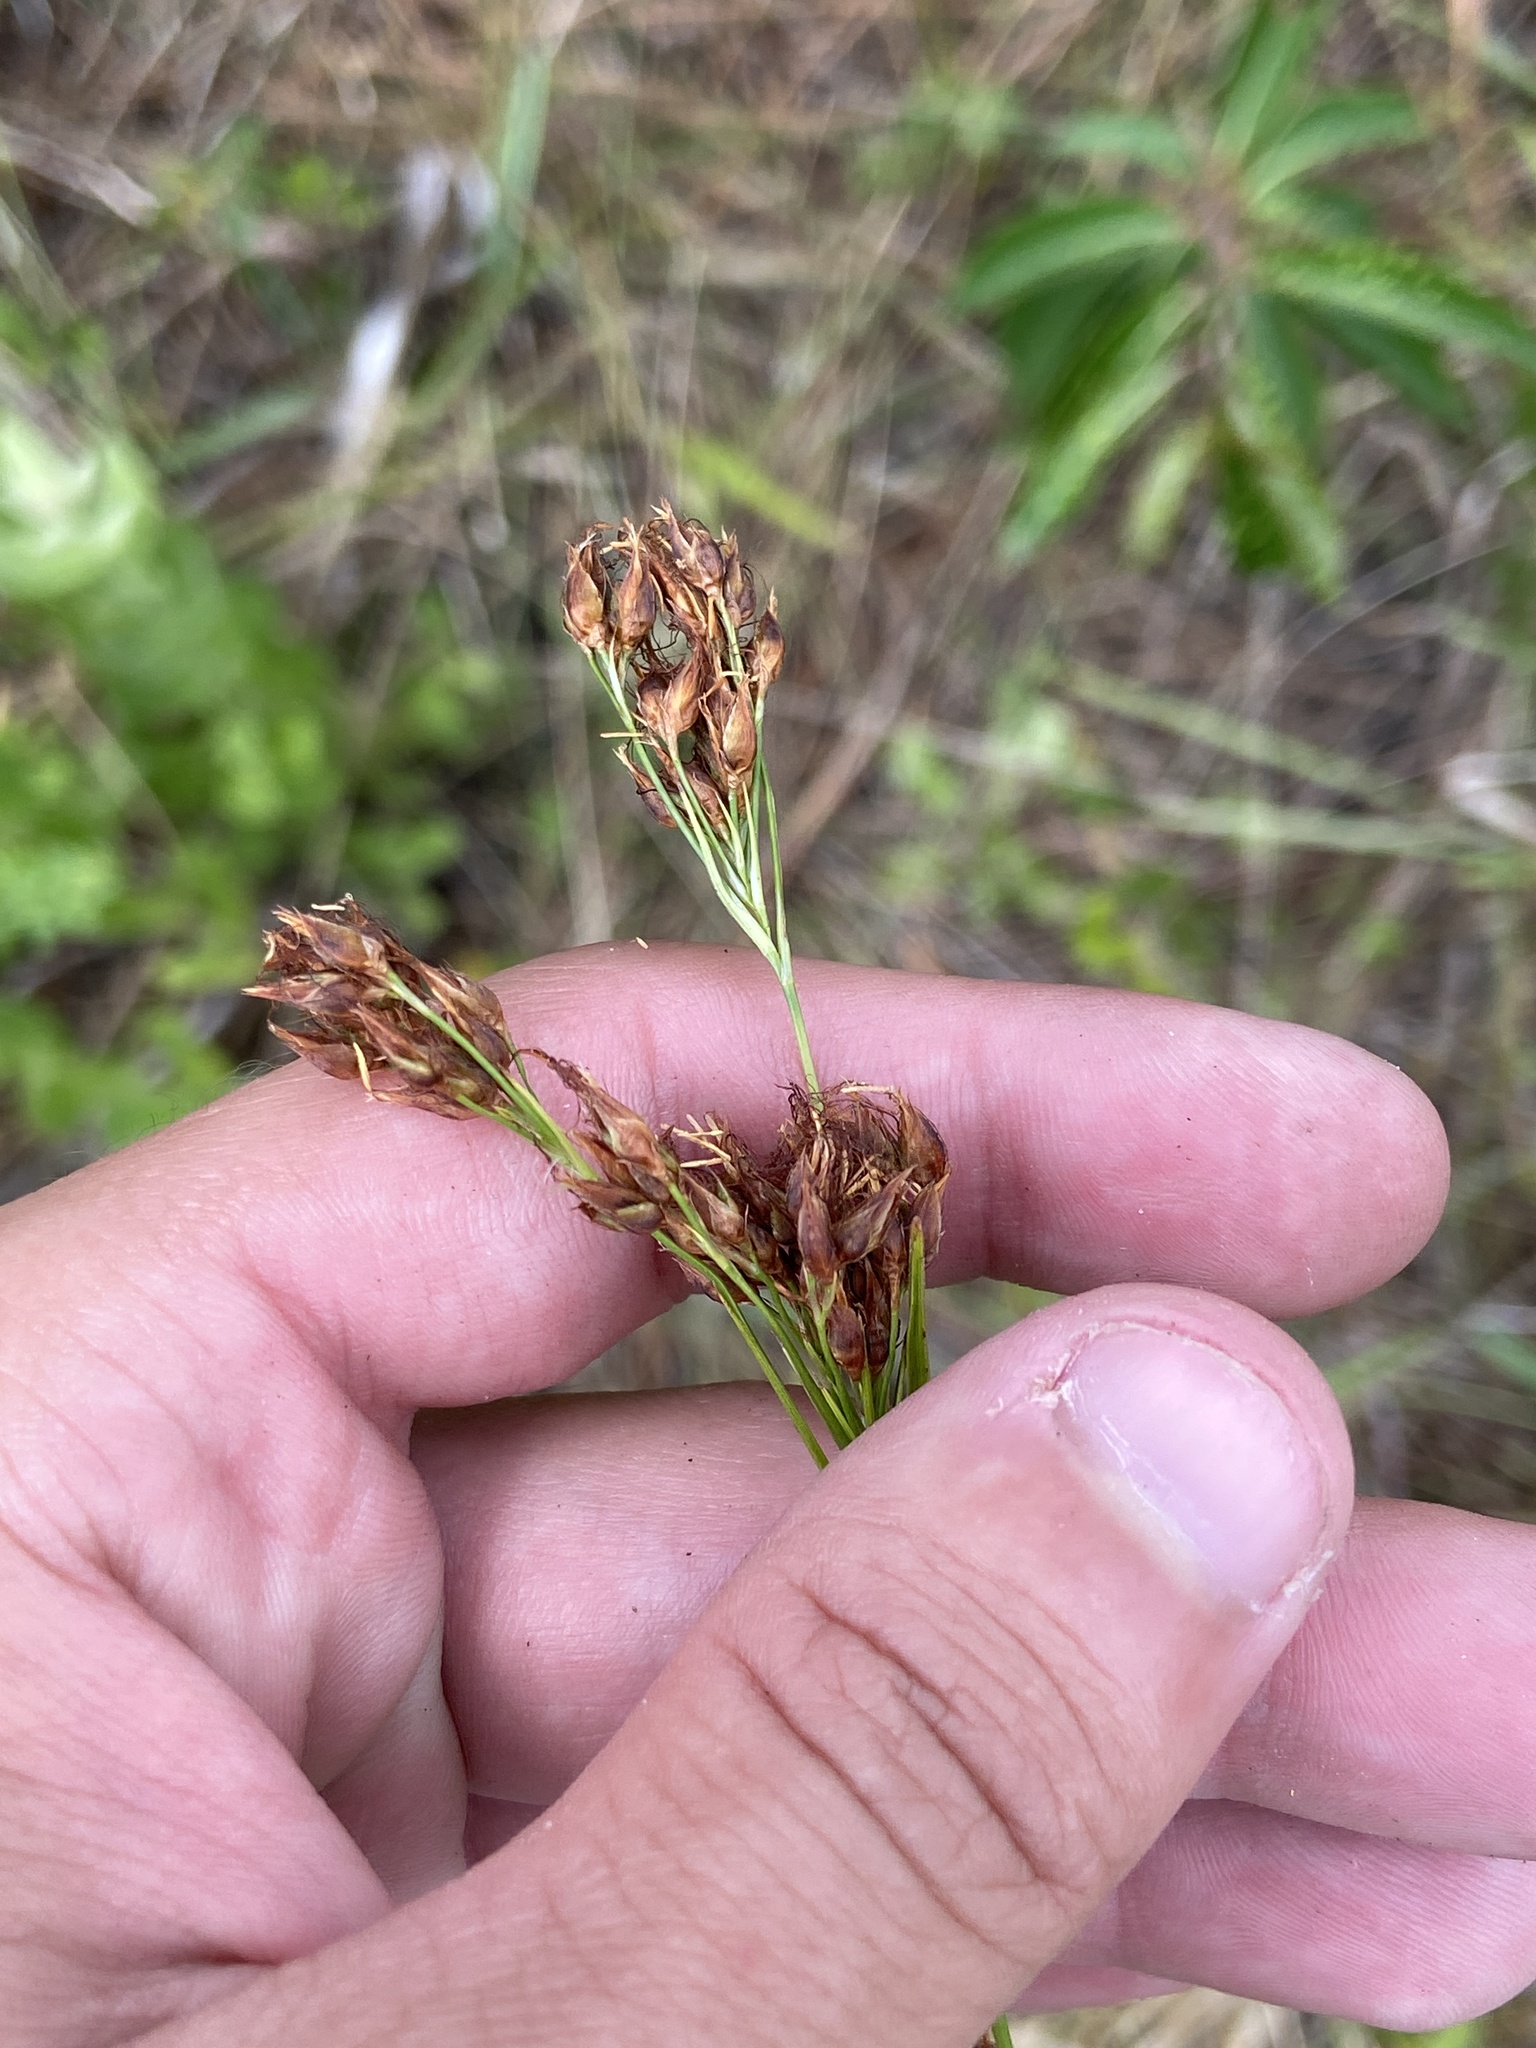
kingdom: Plantae
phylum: Tracheophyta
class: Liliopsida
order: Poales
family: Cyperaceae
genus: Rhynchospora
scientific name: Rhynchospora odorata
